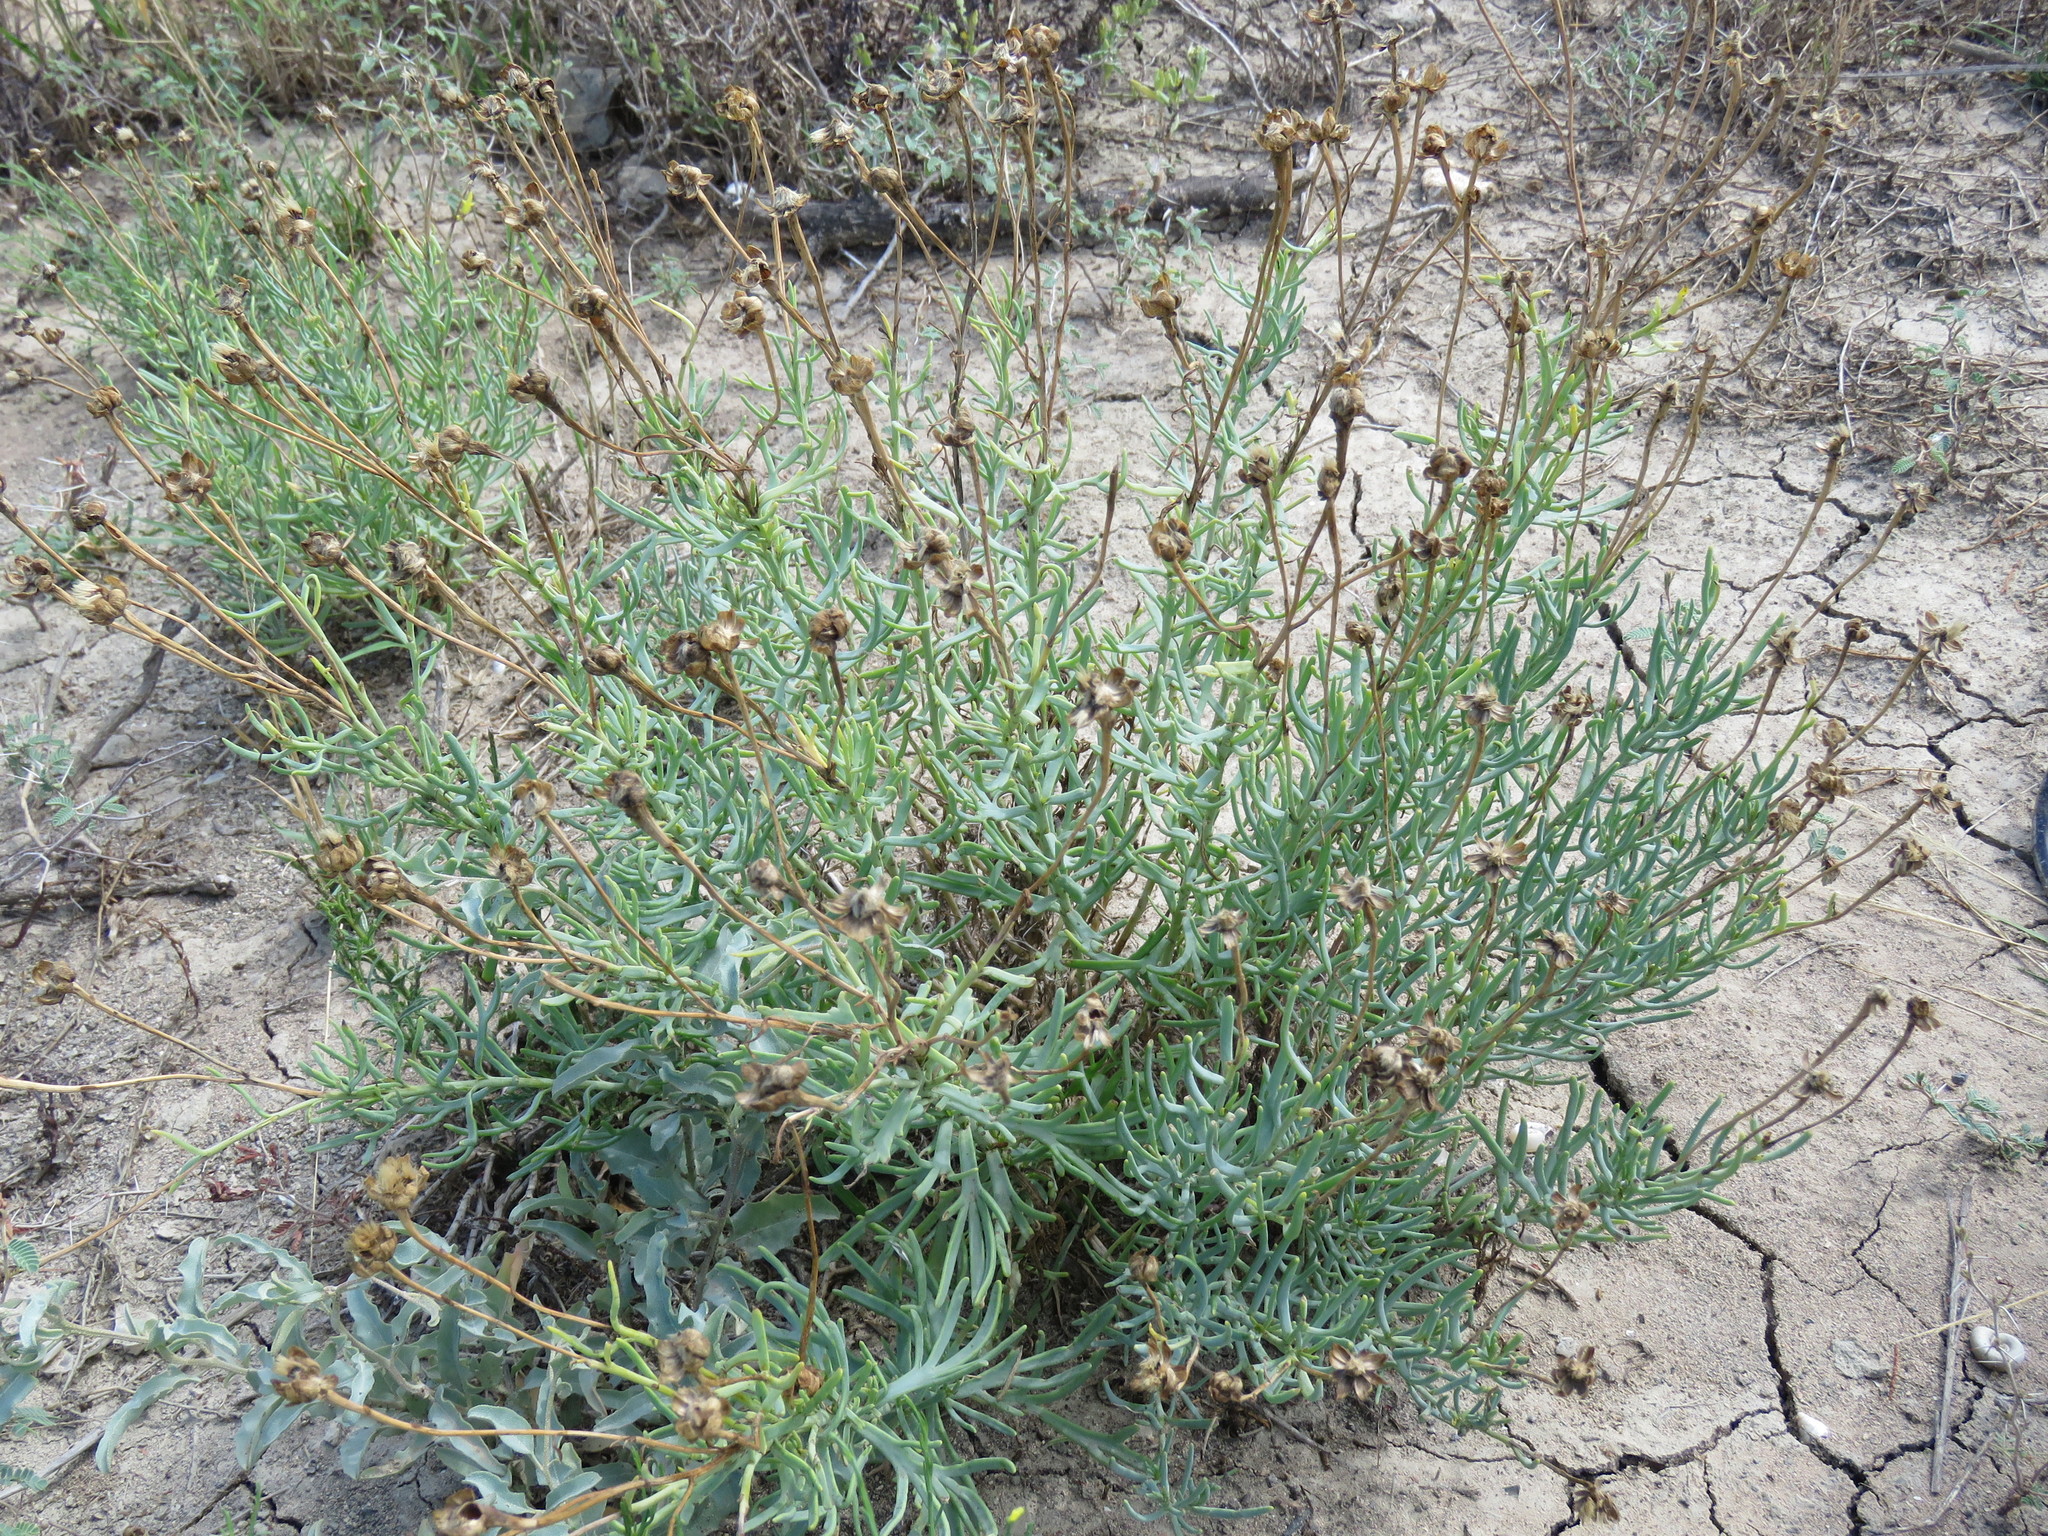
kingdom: Plantae
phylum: Tracheophyta
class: Magnoliopsida
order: Asterales
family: Asteraceae
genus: Clappia
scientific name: Clappia suaedifolia
